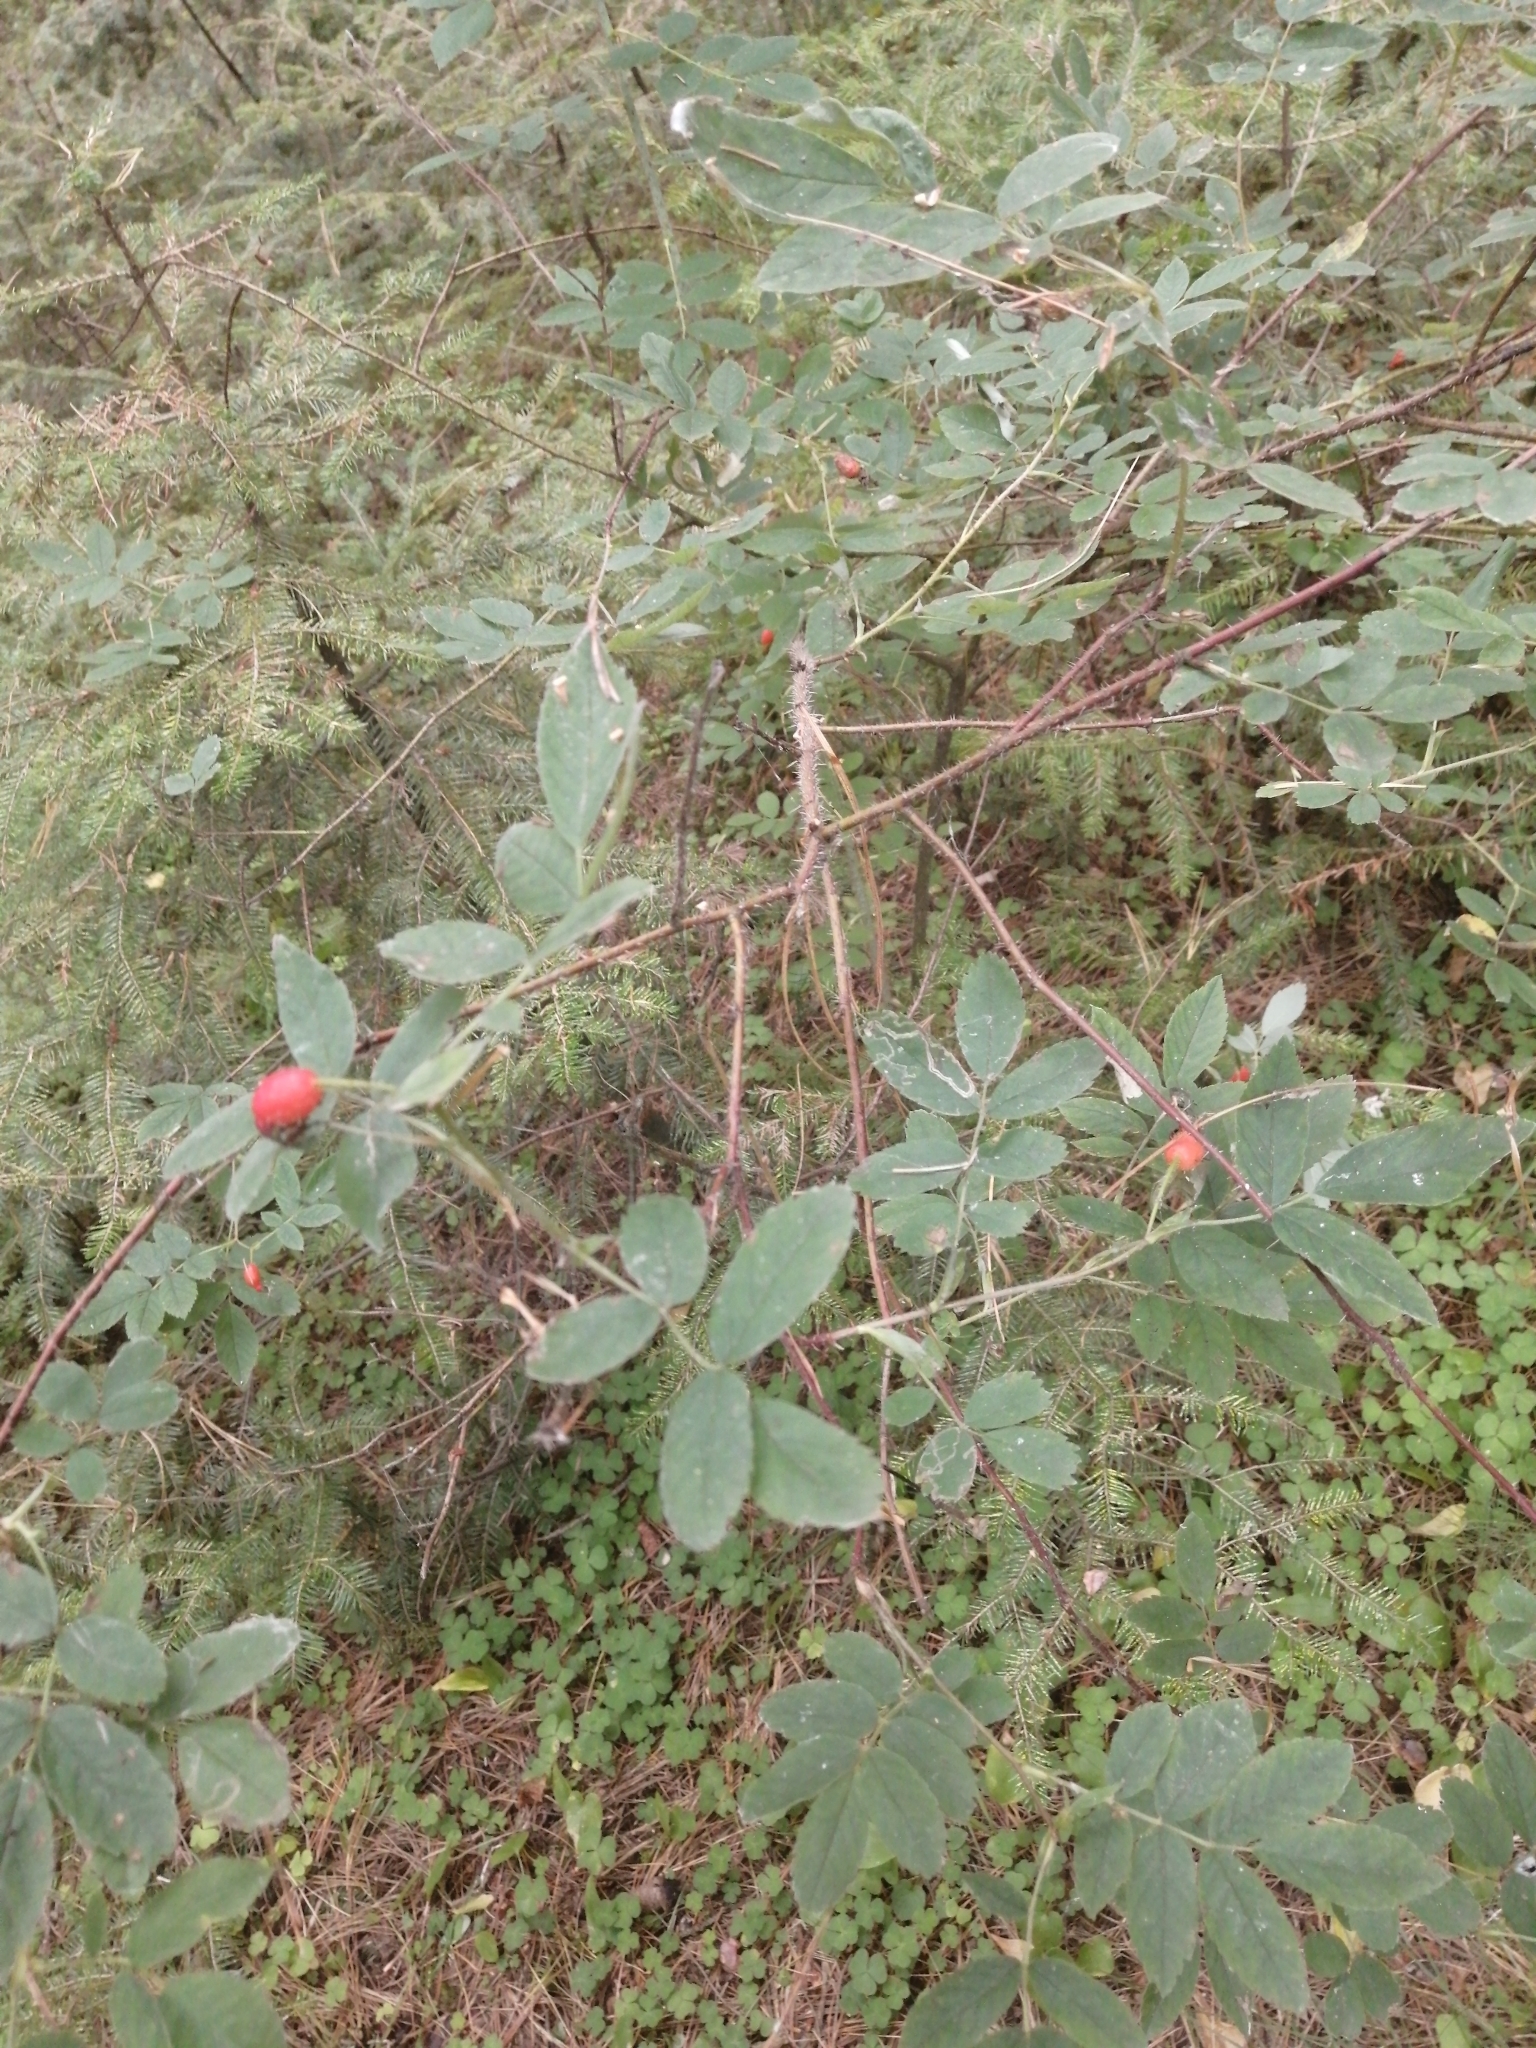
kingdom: Plantae
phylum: Tracheophyta
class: Magnoliopsida
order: Rosales
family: Rosaceae
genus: Rosa
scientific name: Rosa acicularis
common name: Prickly rose
